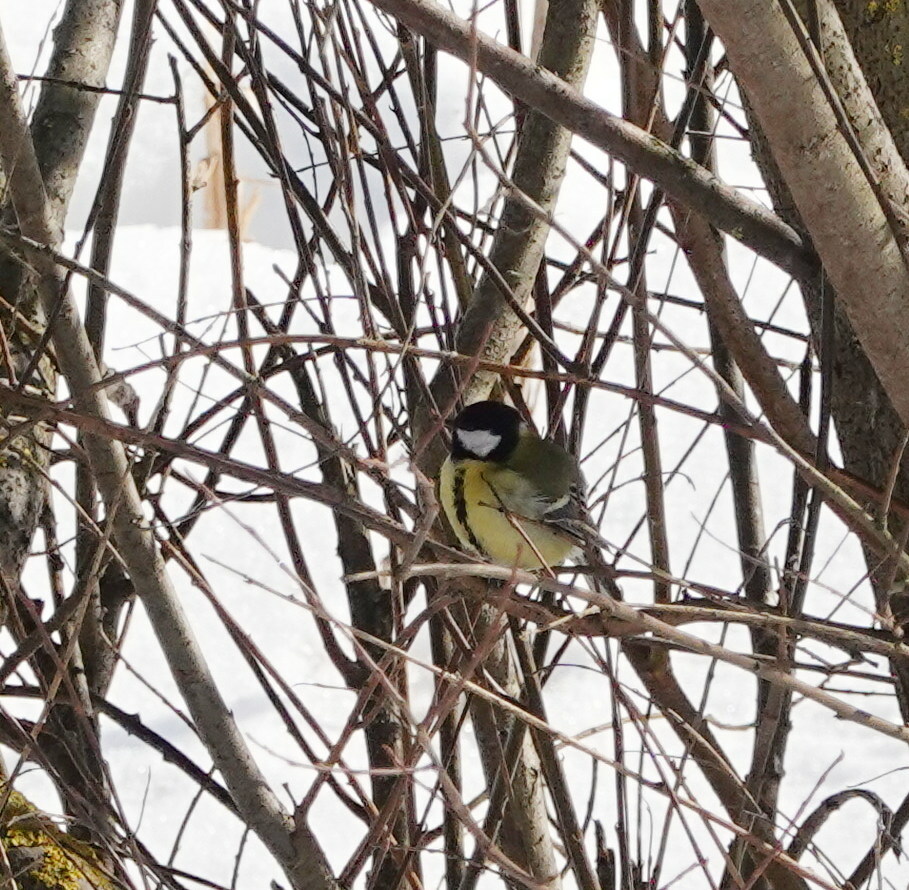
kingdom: Animalia
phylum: Chordata
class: Aves
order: Passeriformes
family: Paridae
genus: Parus
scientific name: Parus major
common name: Great tit
